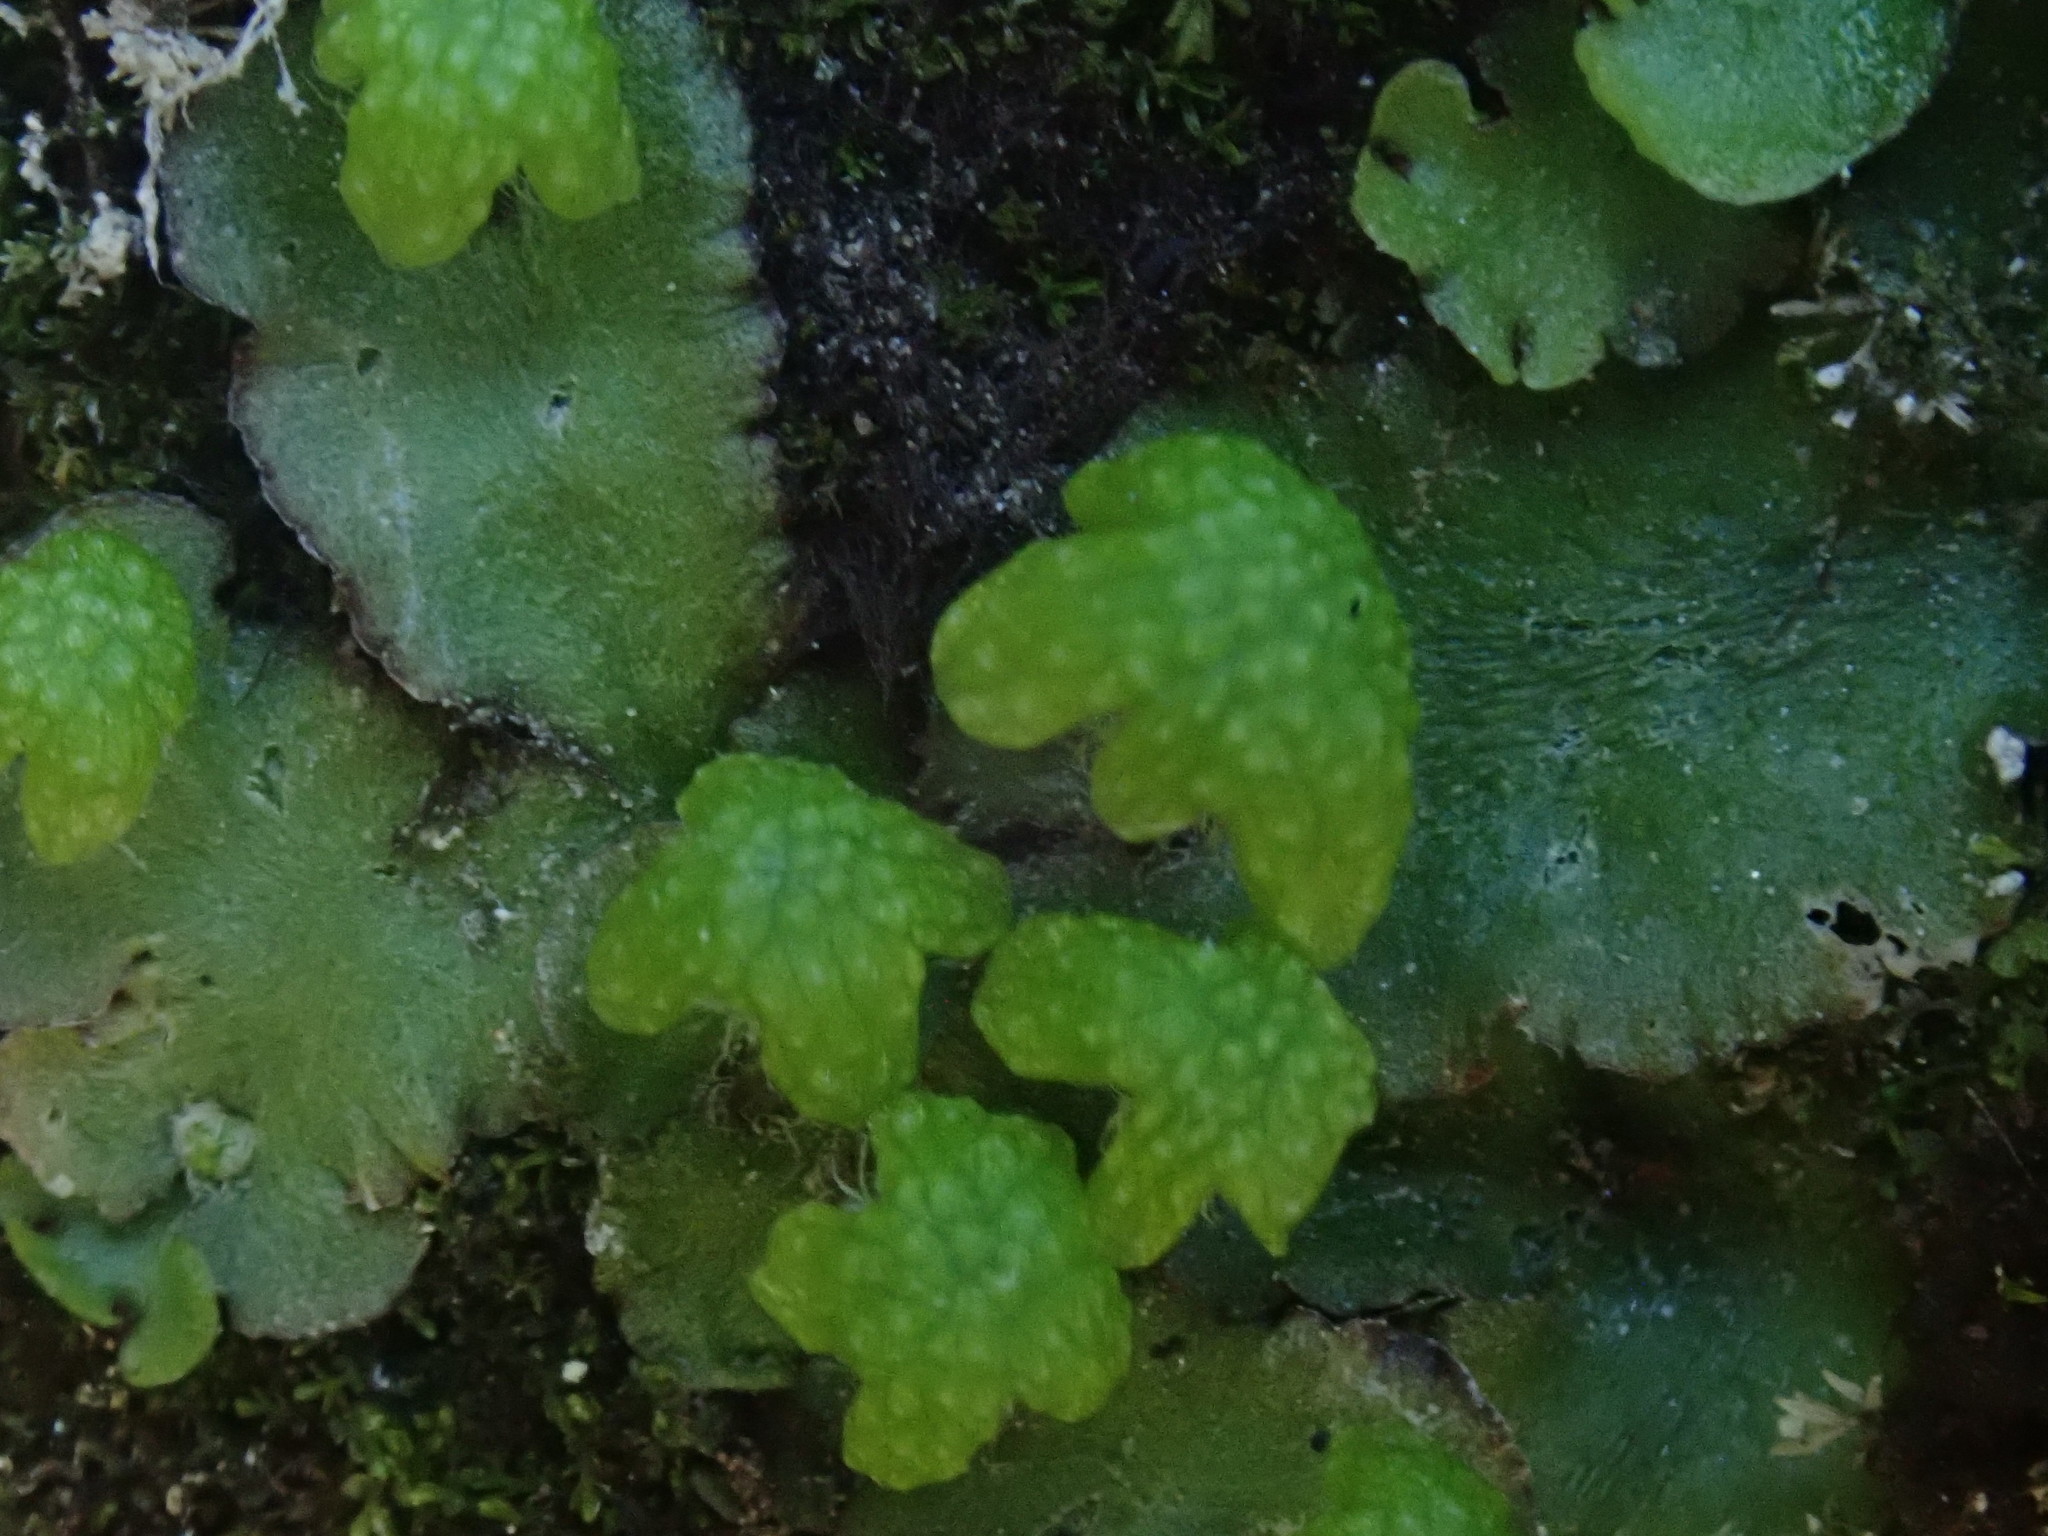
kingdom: Plantae
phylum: Marchantiophyta
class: Marchantiopsida
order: Marchantiales
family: Aytoniaceae
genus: Reboulia
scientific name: Reboulia hemisphaerica
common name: Purple-margined liverwort
